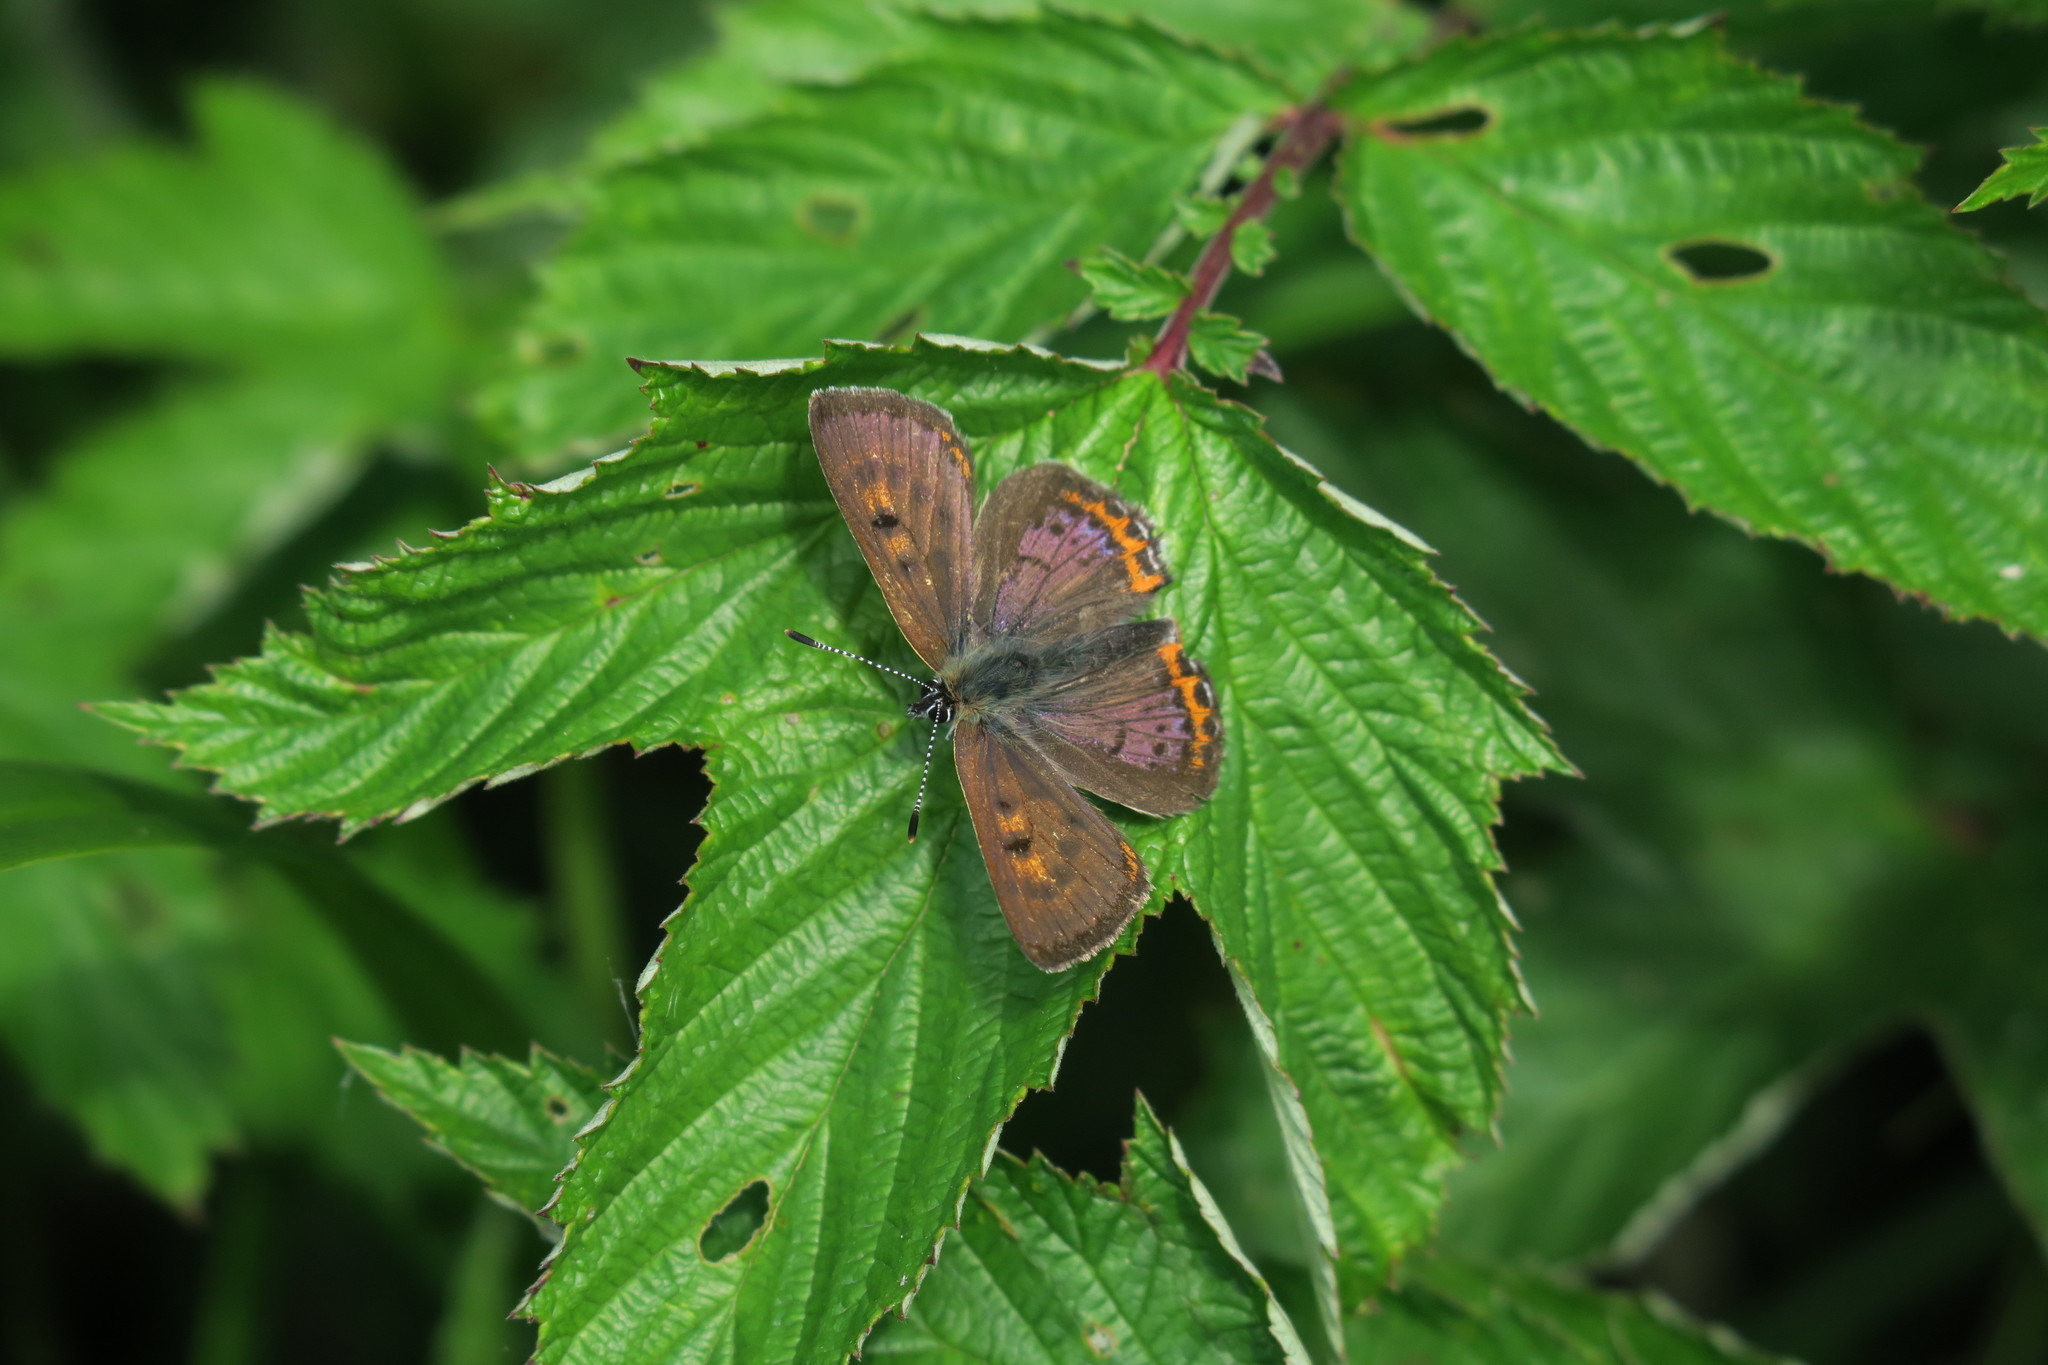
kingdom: Animalia
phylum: Arthropoda
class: Insecta
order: Lepidoptera
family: Lycaenidae
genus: Helleia
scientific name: Helleia helle
